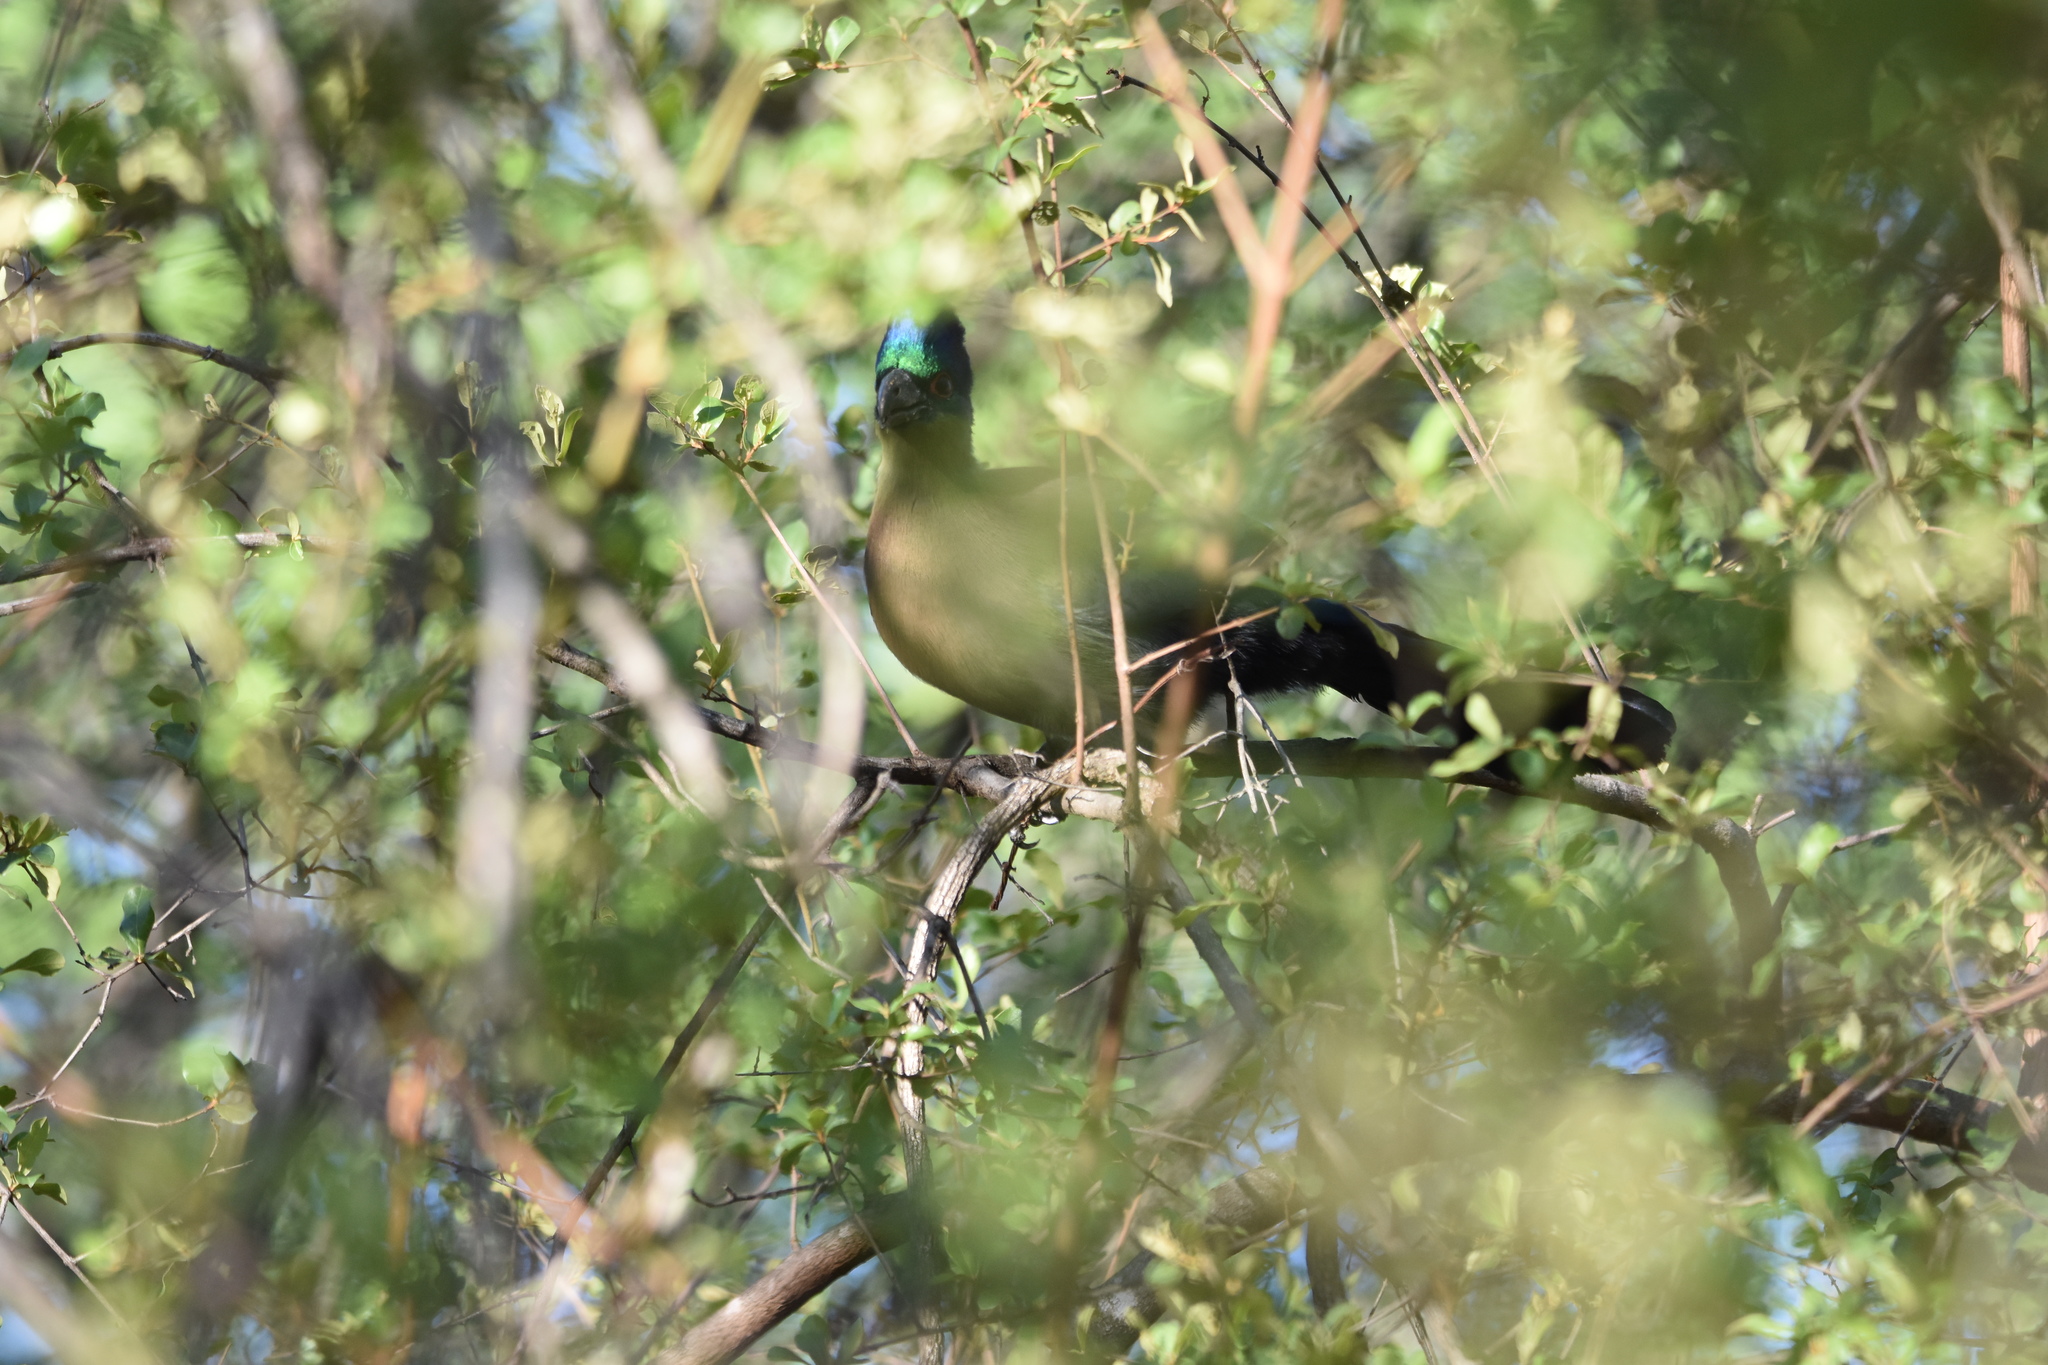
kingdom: Animalia
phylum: Chordata
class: Aves
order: Musophagiformes
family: Musophagidae
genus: Tauraco
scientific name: Tauraco porphyreolophus
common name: Purple-crested turaco
